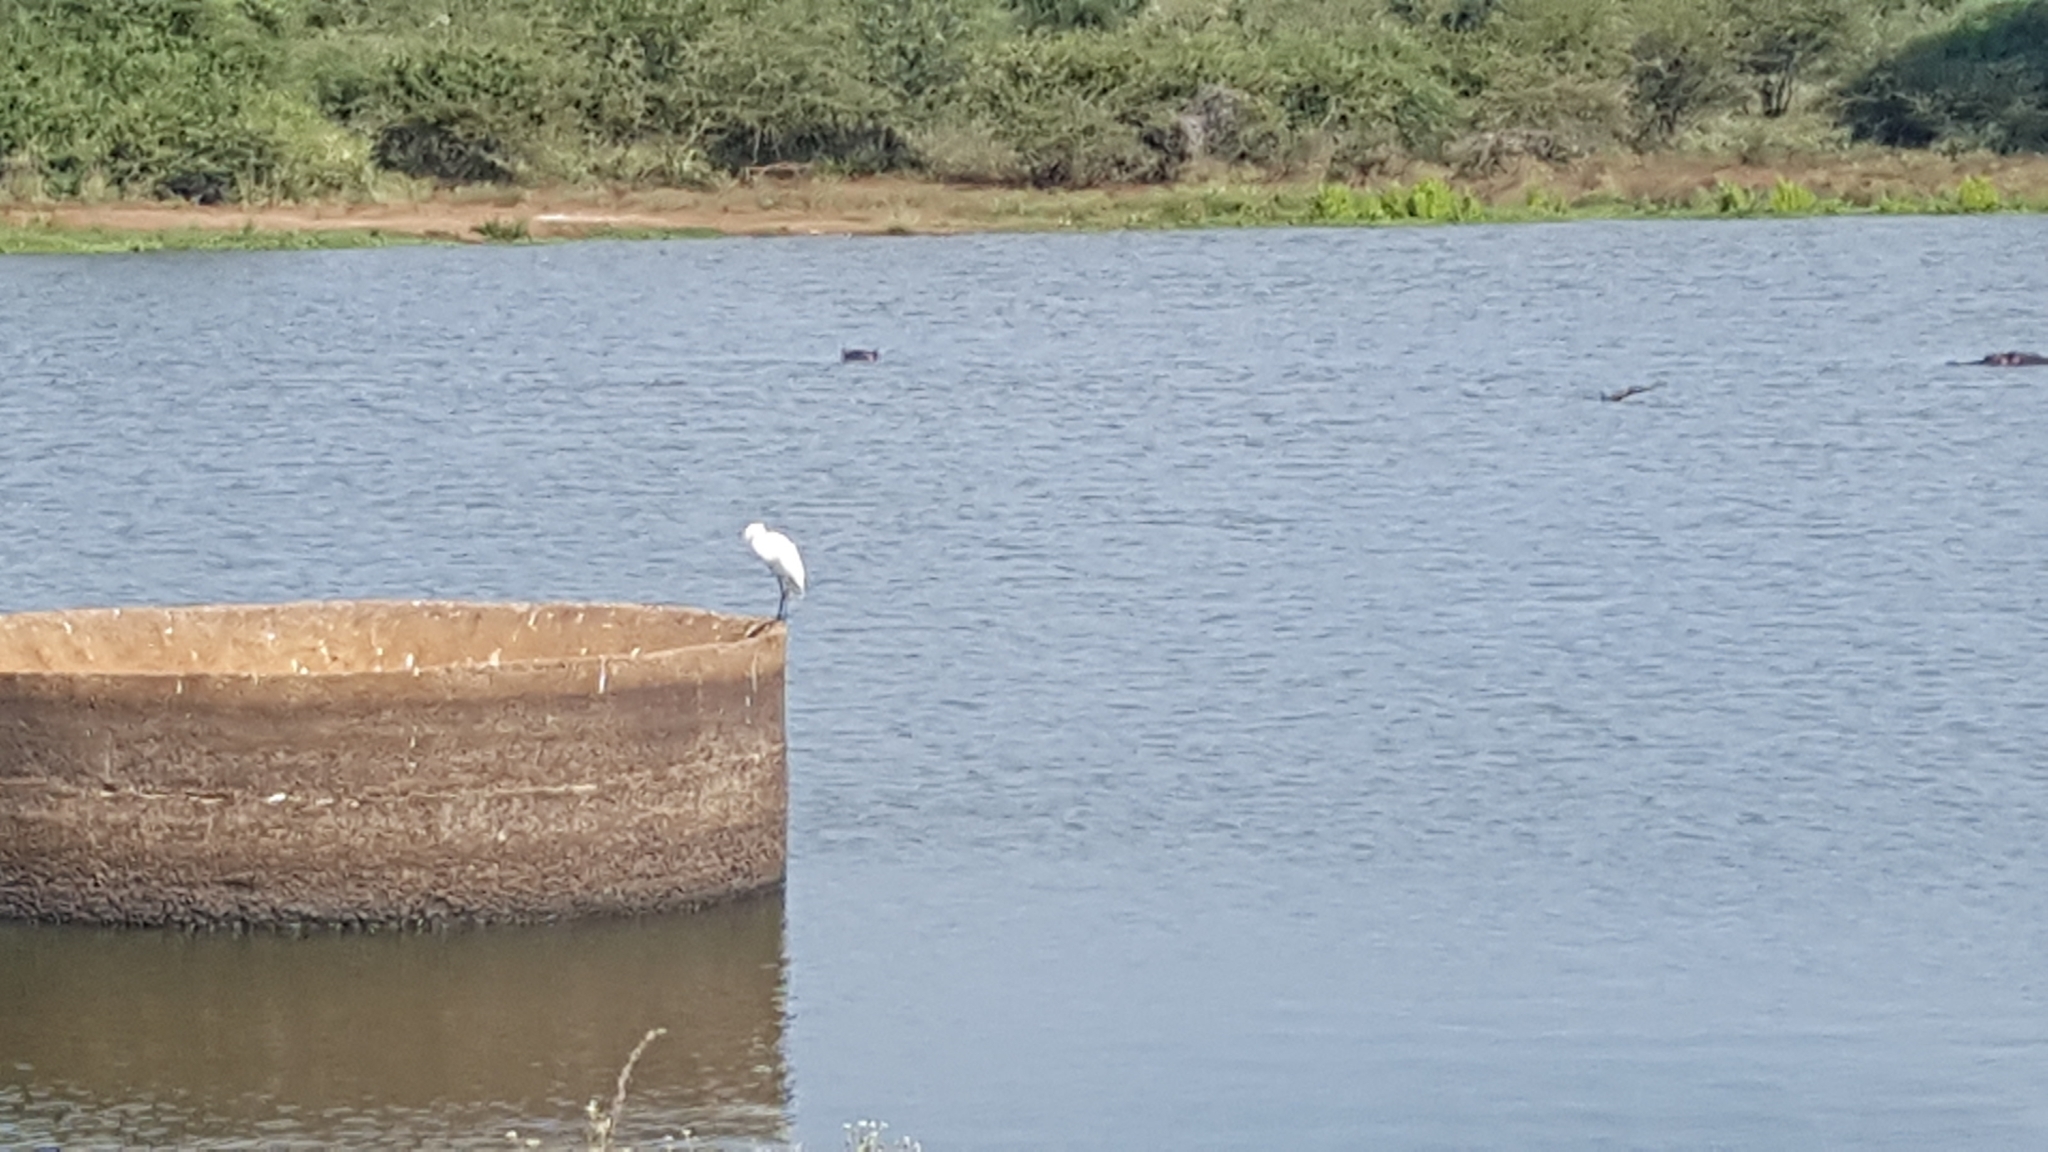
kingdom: Animalia
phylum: Chordata
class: Aves
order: Pelecaniformes
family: Ardeidae
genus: Egretta
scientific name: Egretta garzetta
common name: Little egret
